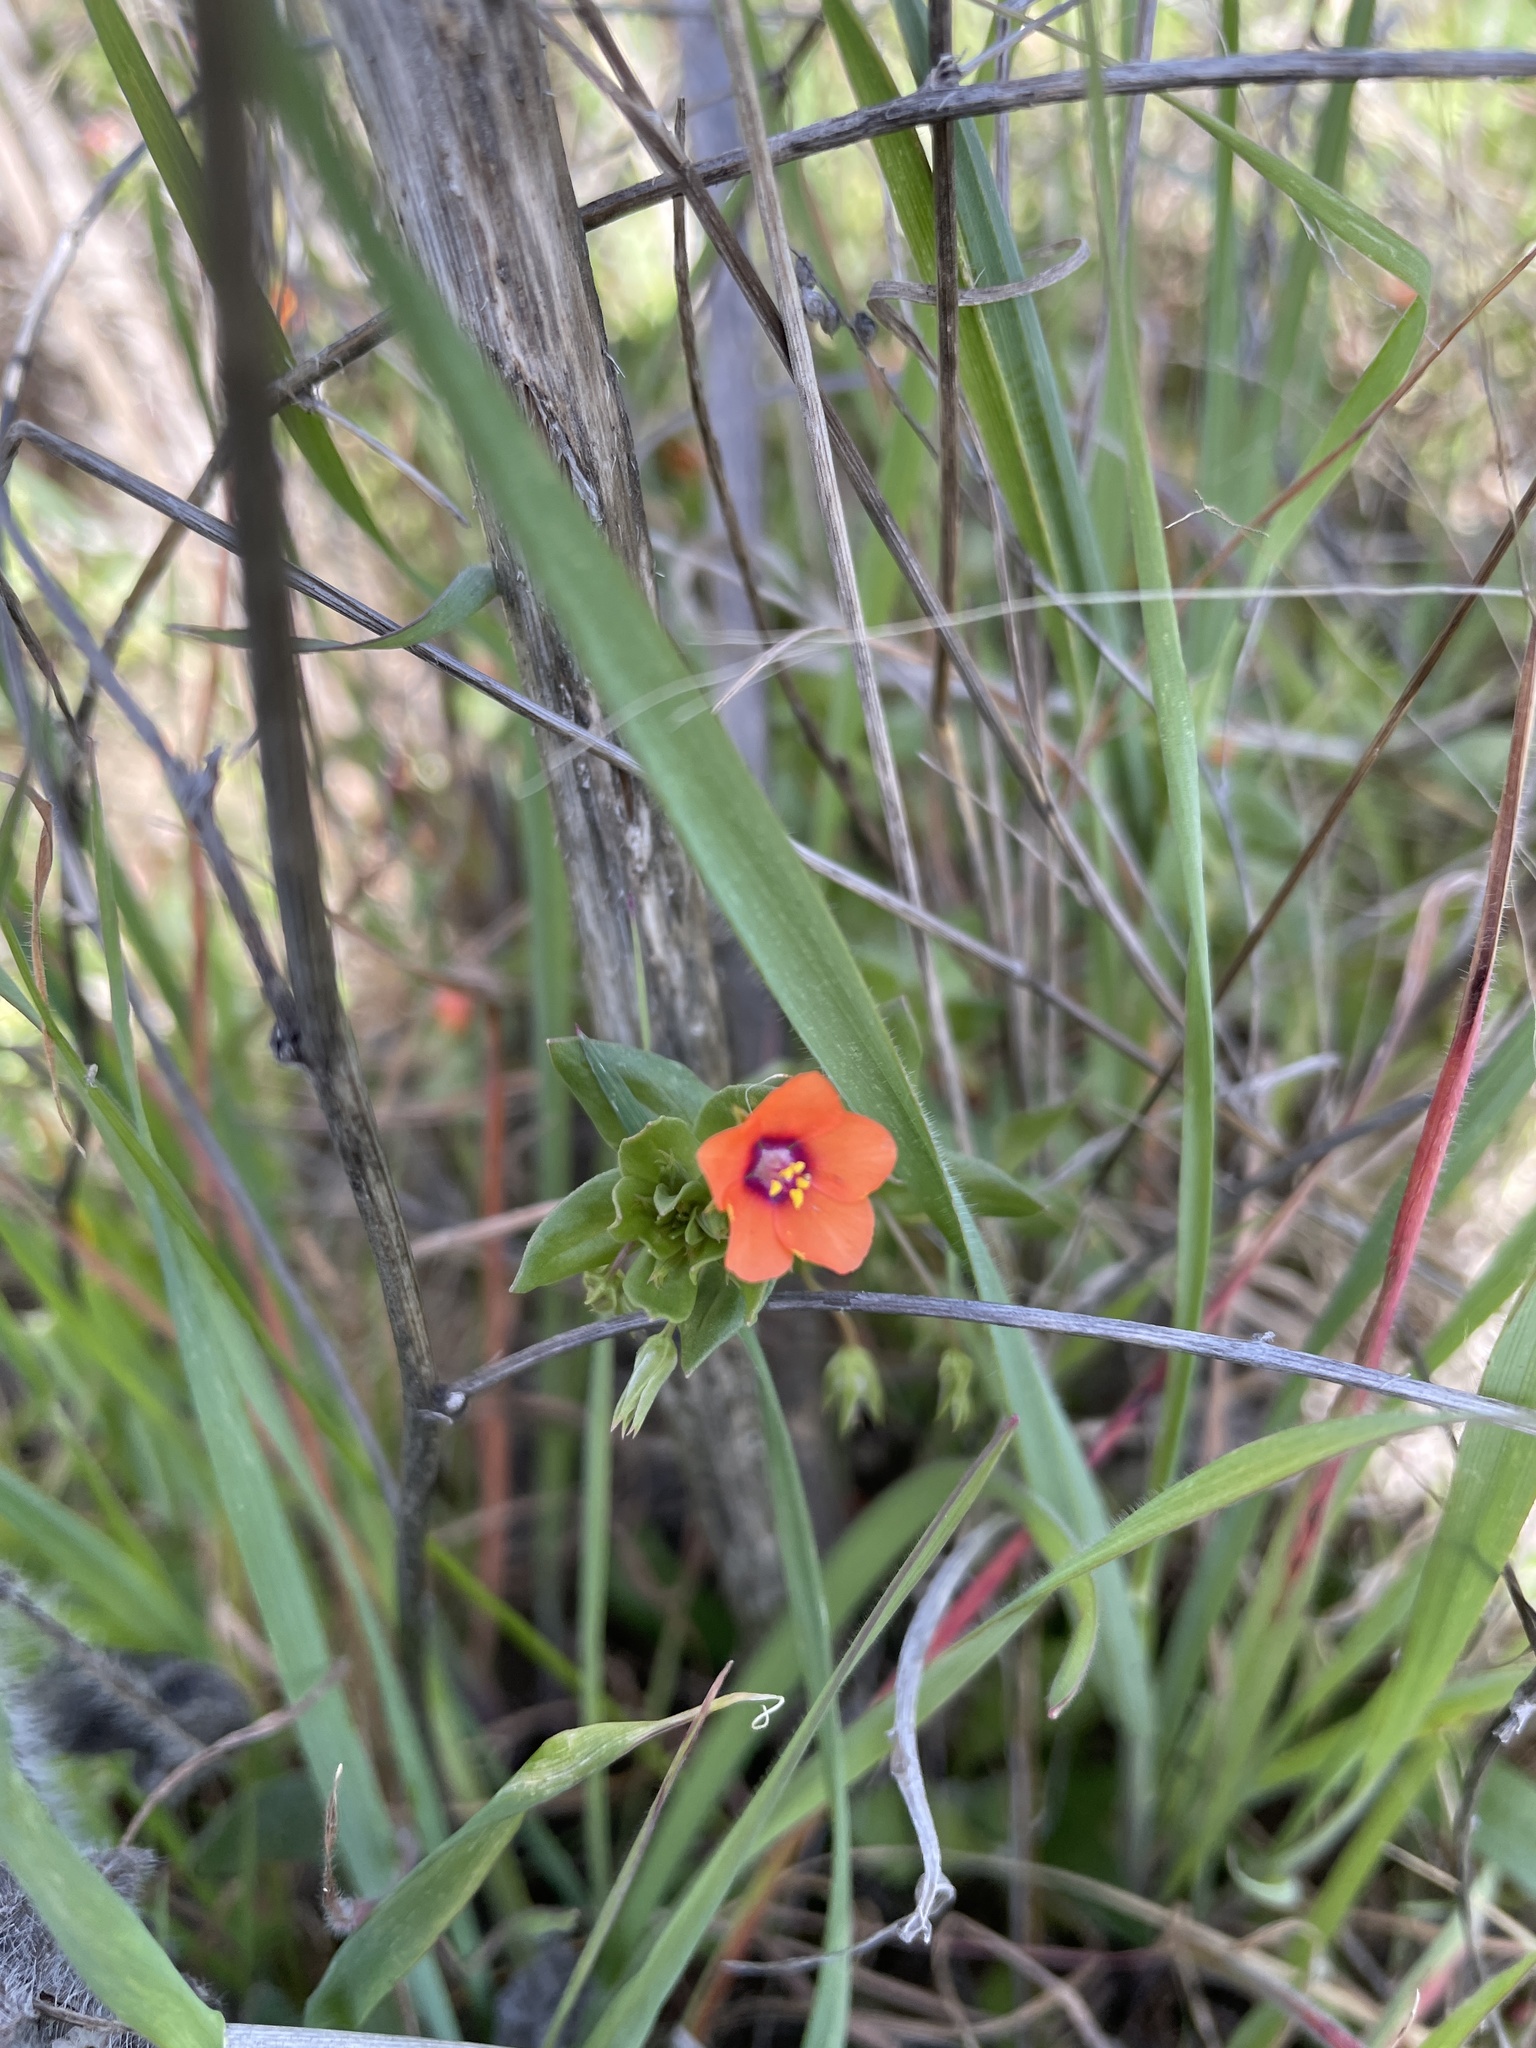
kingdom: Plantae
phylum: Tracheophyta
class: Magnoliopsida
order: Ericales
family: Primulaceae
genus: Lysimachia
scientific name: Lysimachia arvensis
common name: Scarlet pimpernel
